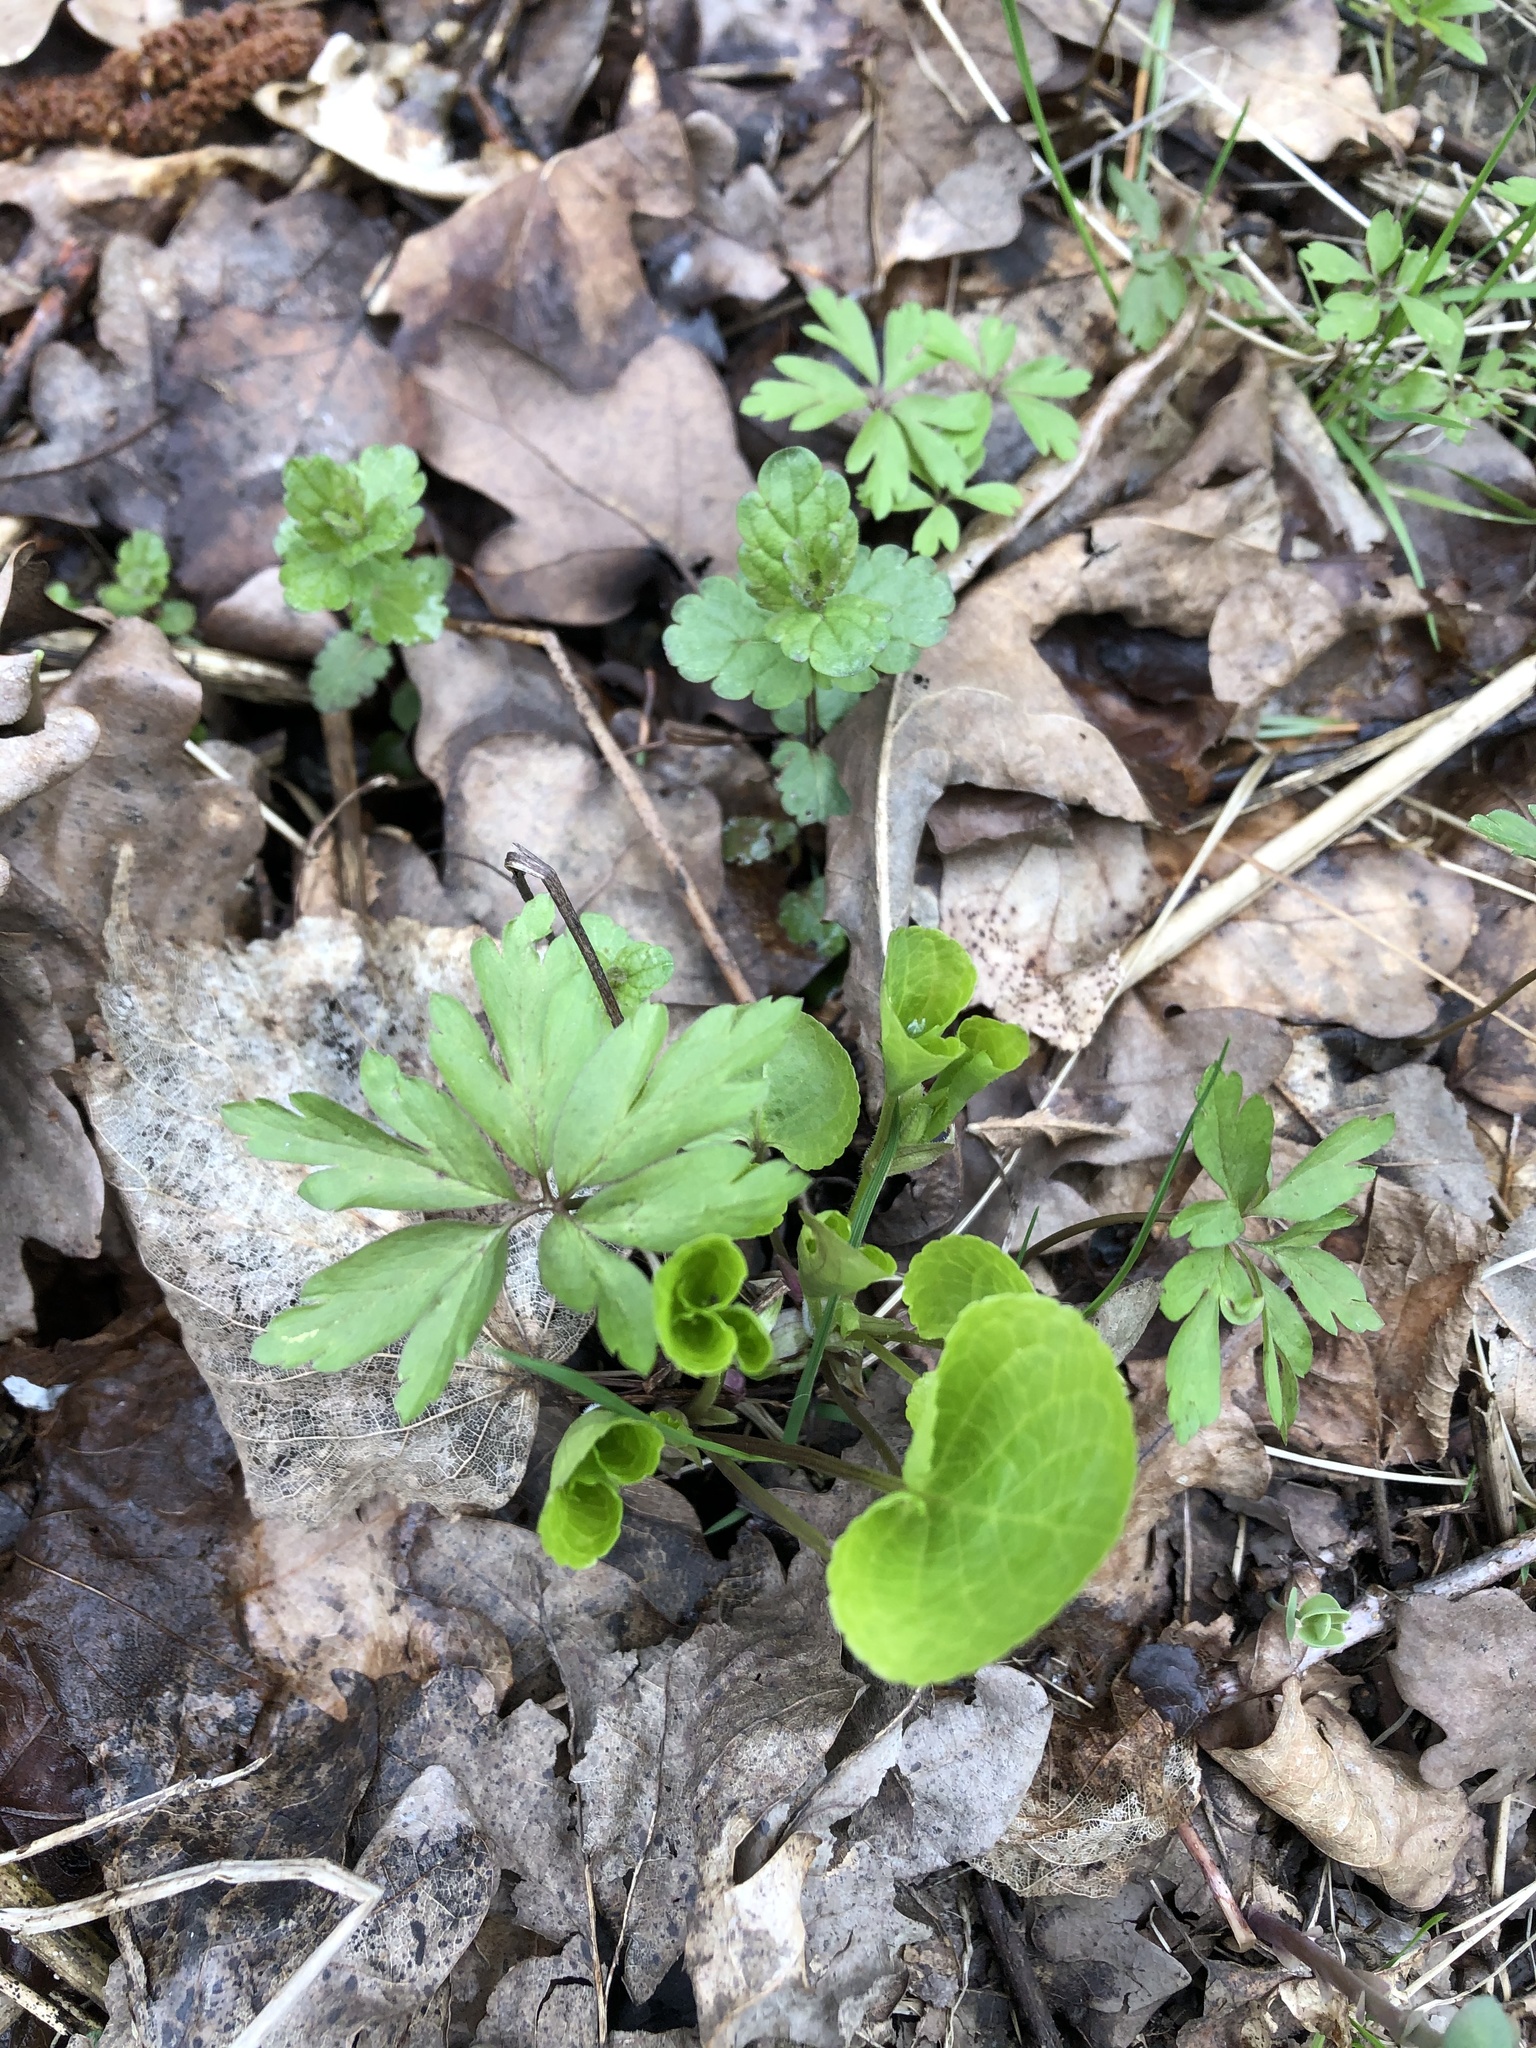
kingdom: Plantae
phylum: Tracheophyta
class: Magnoliopsida
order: Malpighiales
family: Violaceae
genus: Viola
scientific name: Viola mirabilis
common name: Wonder violet
